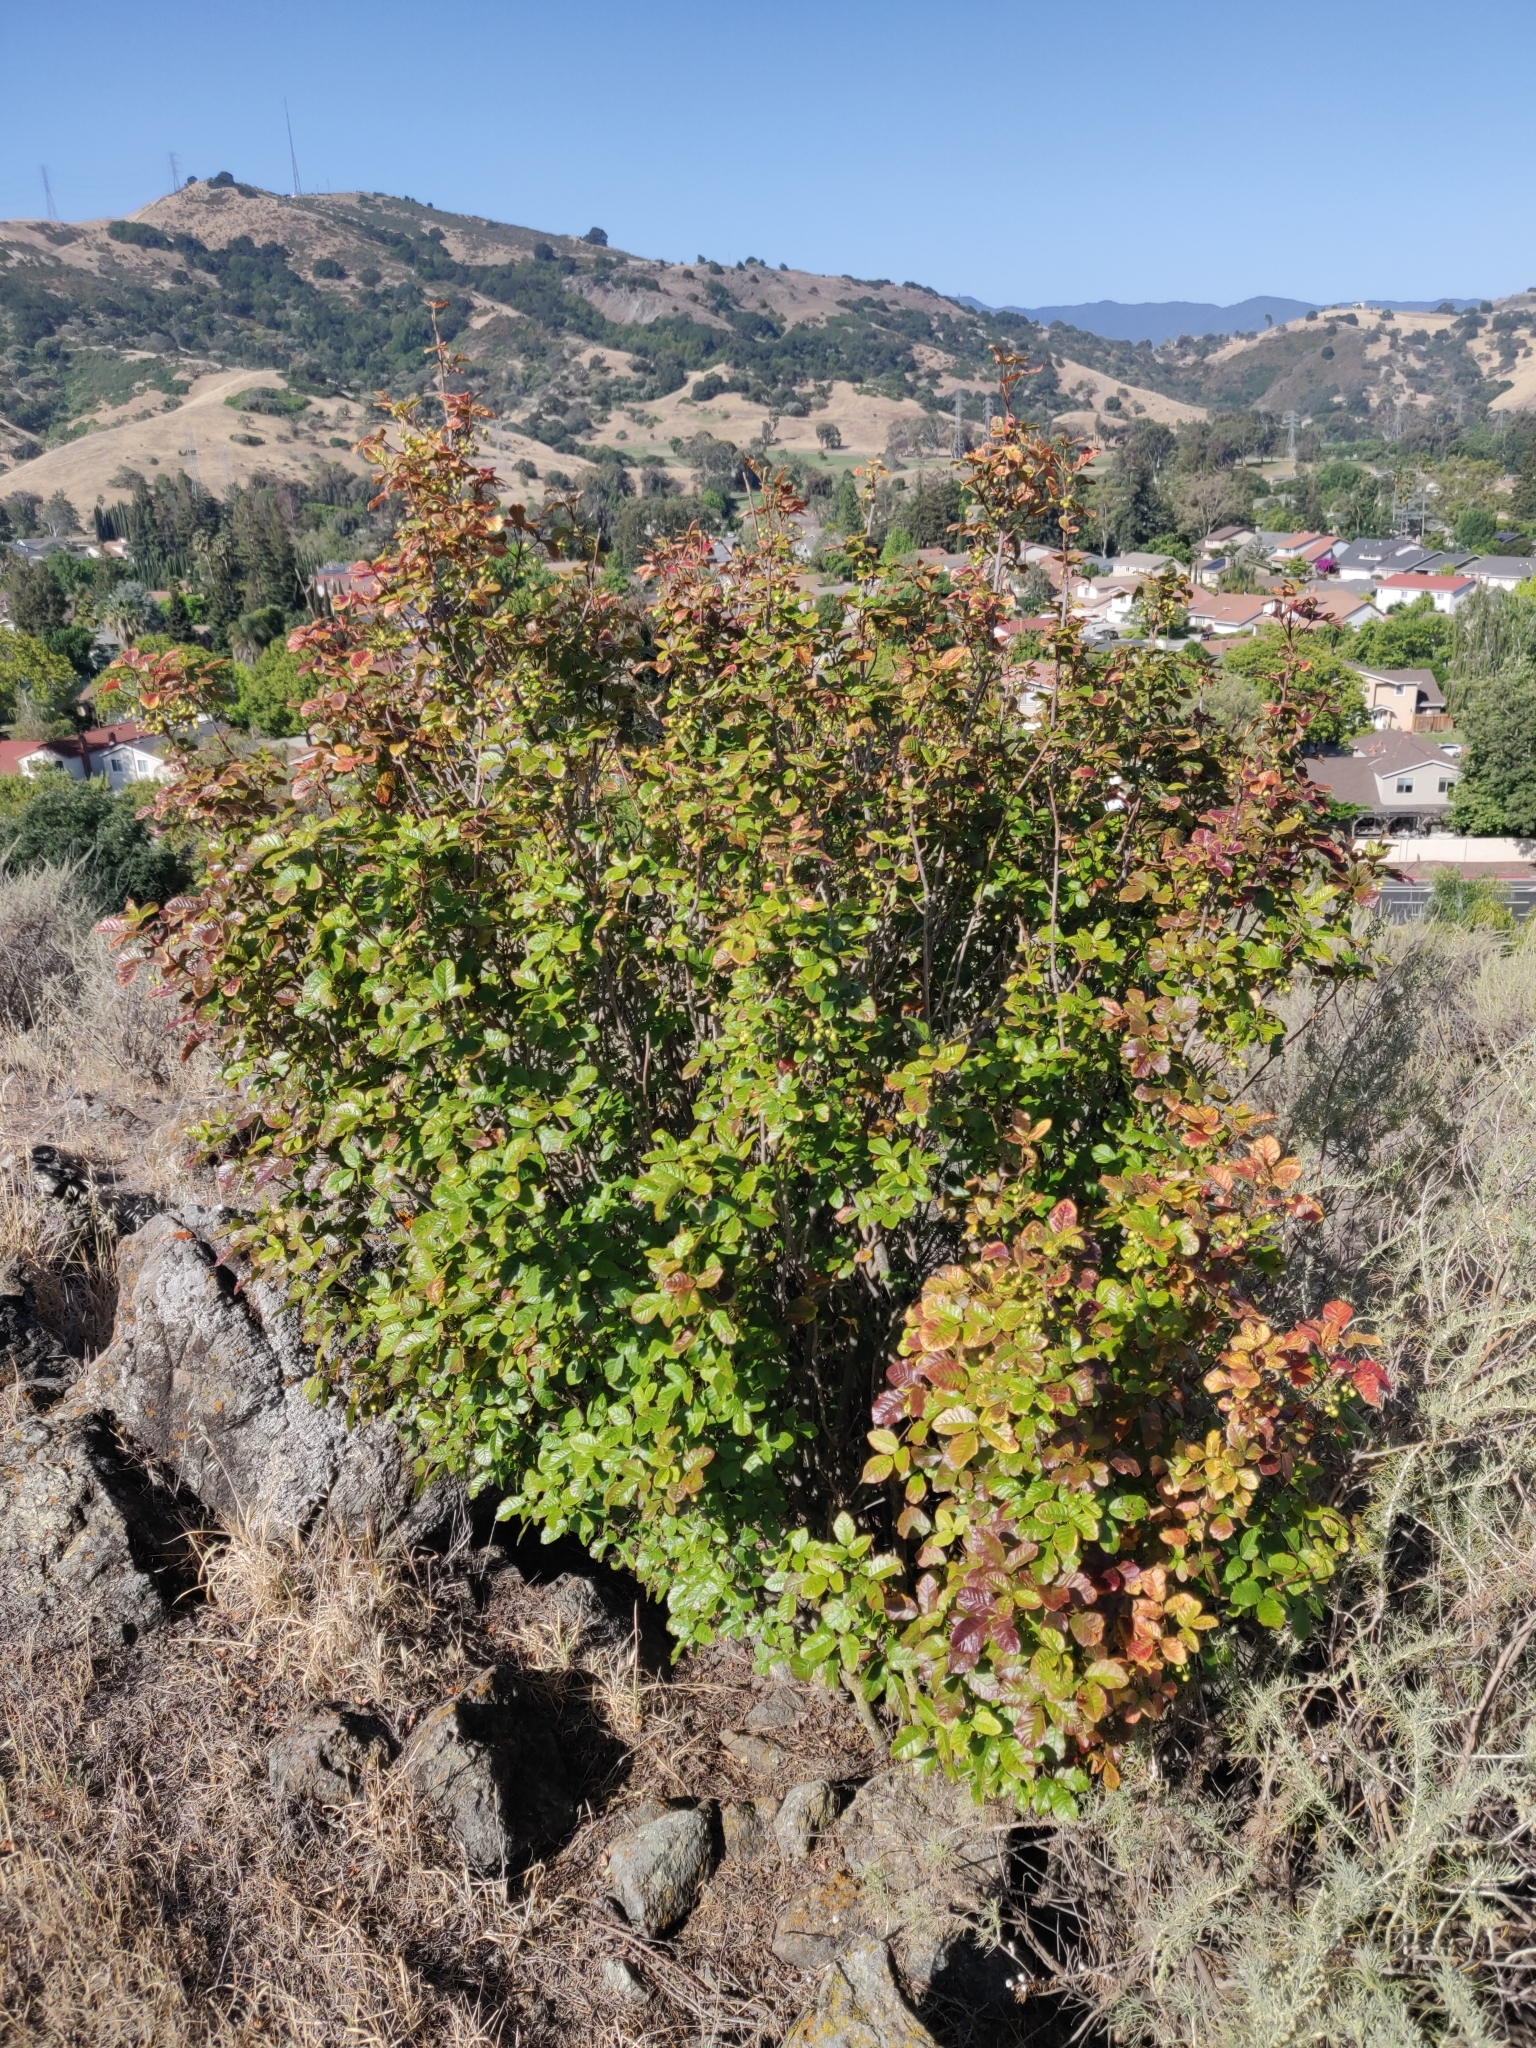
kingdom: Plantae
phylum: Tracheophyta
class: Magnoliopsida
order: Sapindales
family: Anacardiaceae
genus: Toxicodendron
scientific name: Toxicodendron diversilobum
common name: Pacific poison-oak
